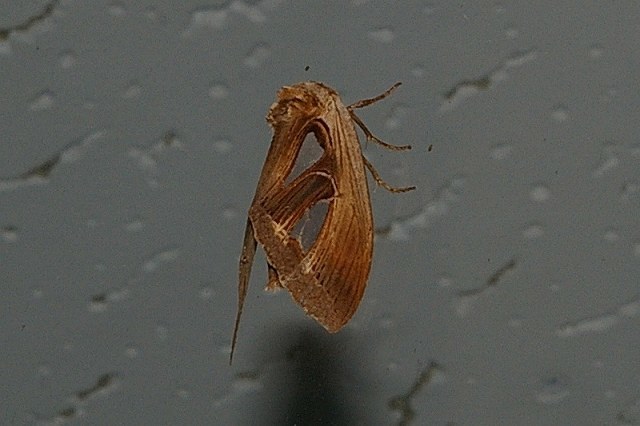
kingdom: Animalia
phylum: Arthropoda
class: Insecta
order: Lepidoptera
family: Notodontidae
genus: Tarsolepis
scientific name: Tarsolepis japonica
